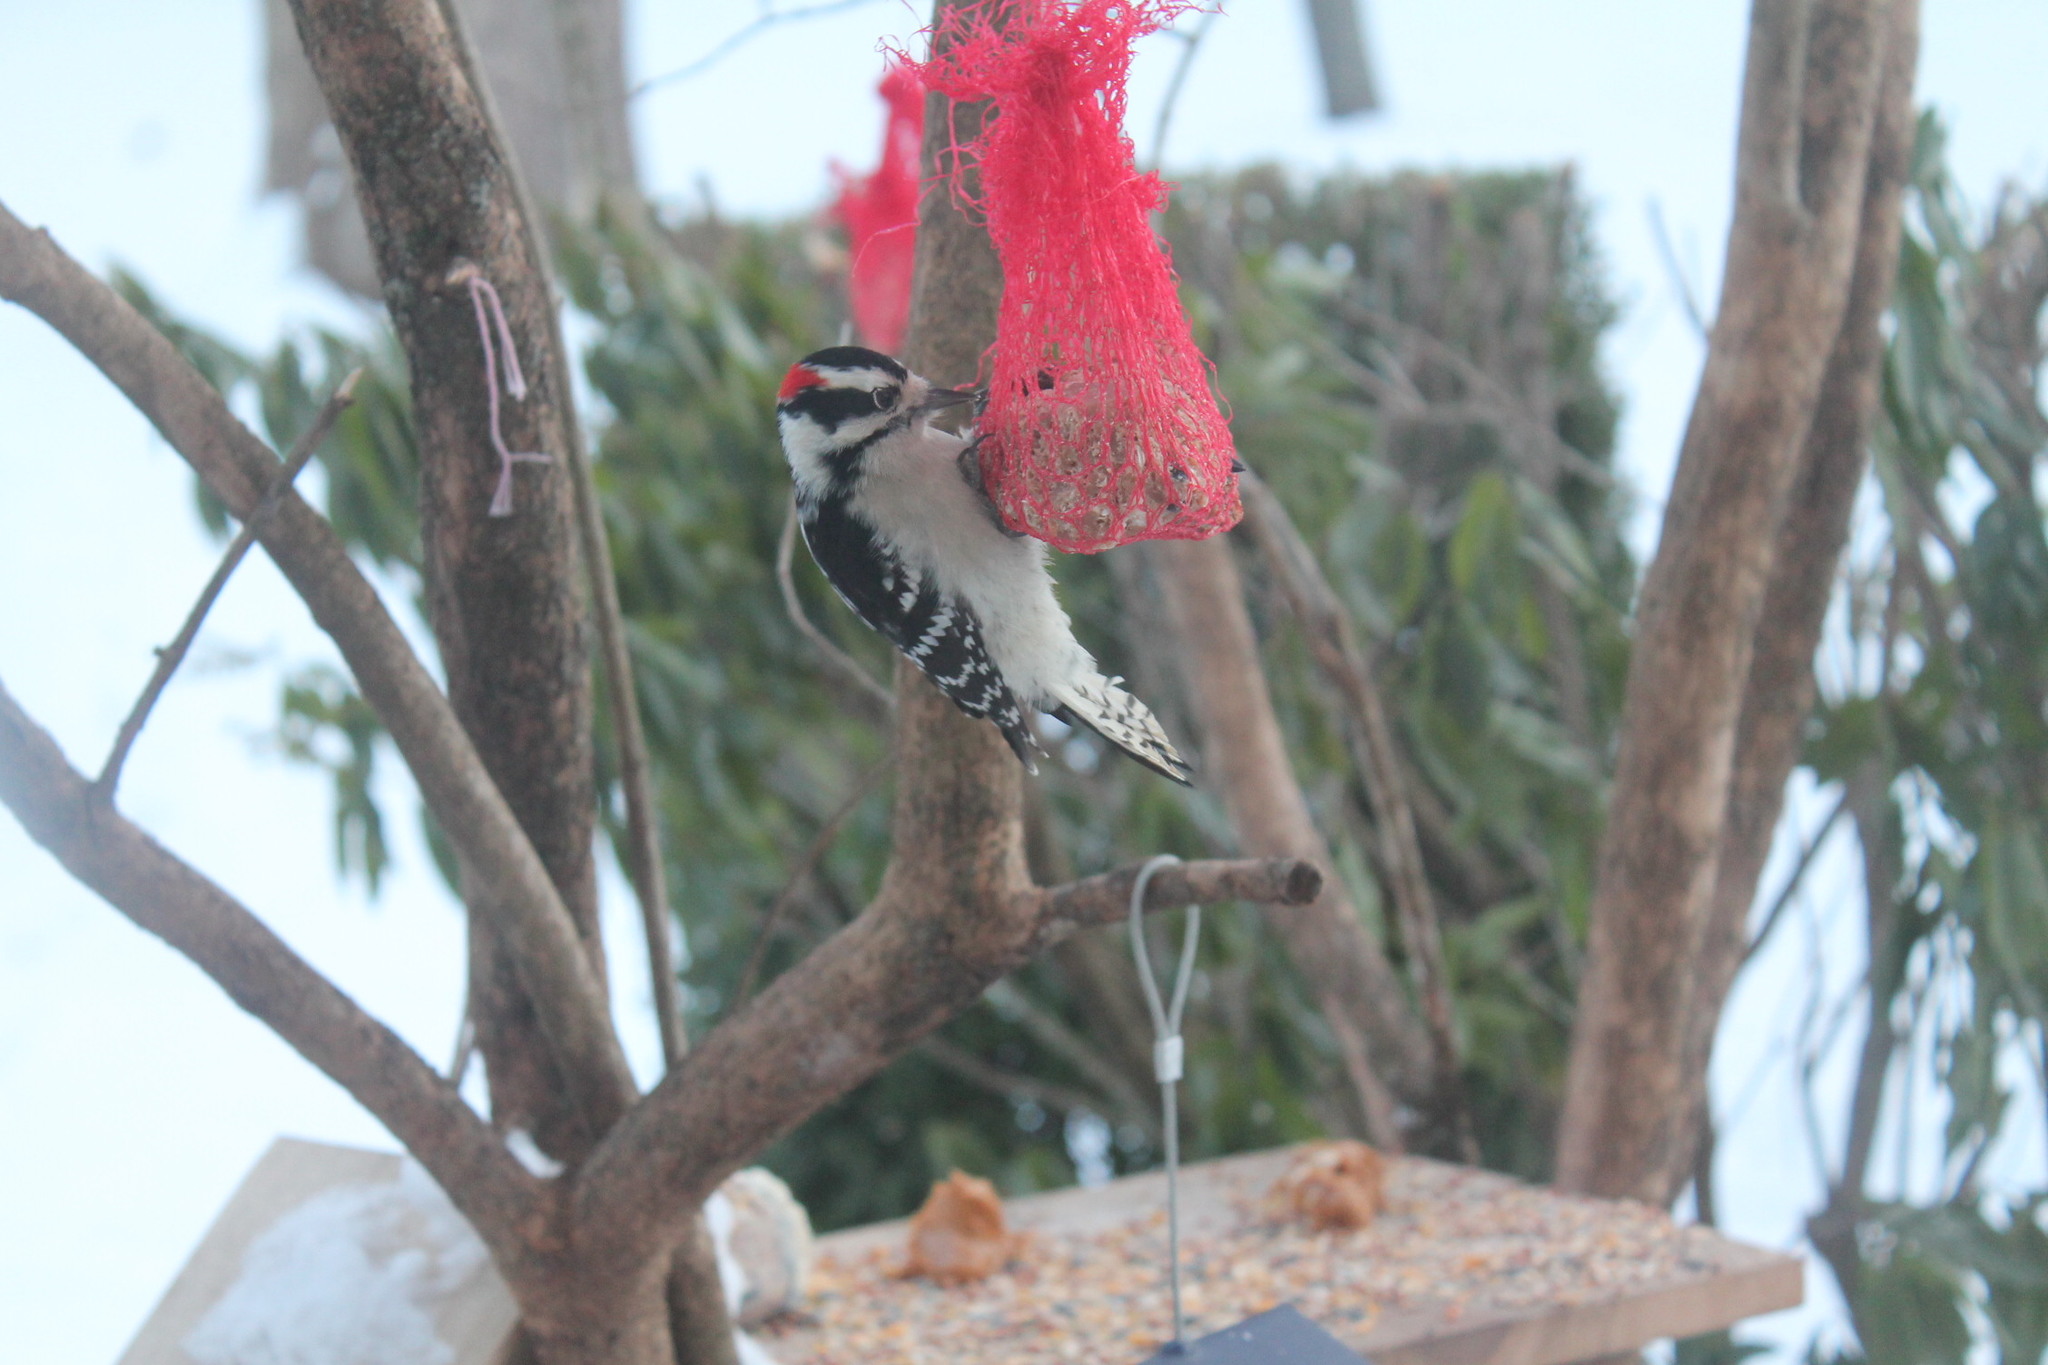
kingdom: Animalia
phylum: Chordata
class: Aves
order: Piciformes
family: Picidae
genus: Dryobates
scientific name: Dryobates pubescens
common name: Downy woodpecker
